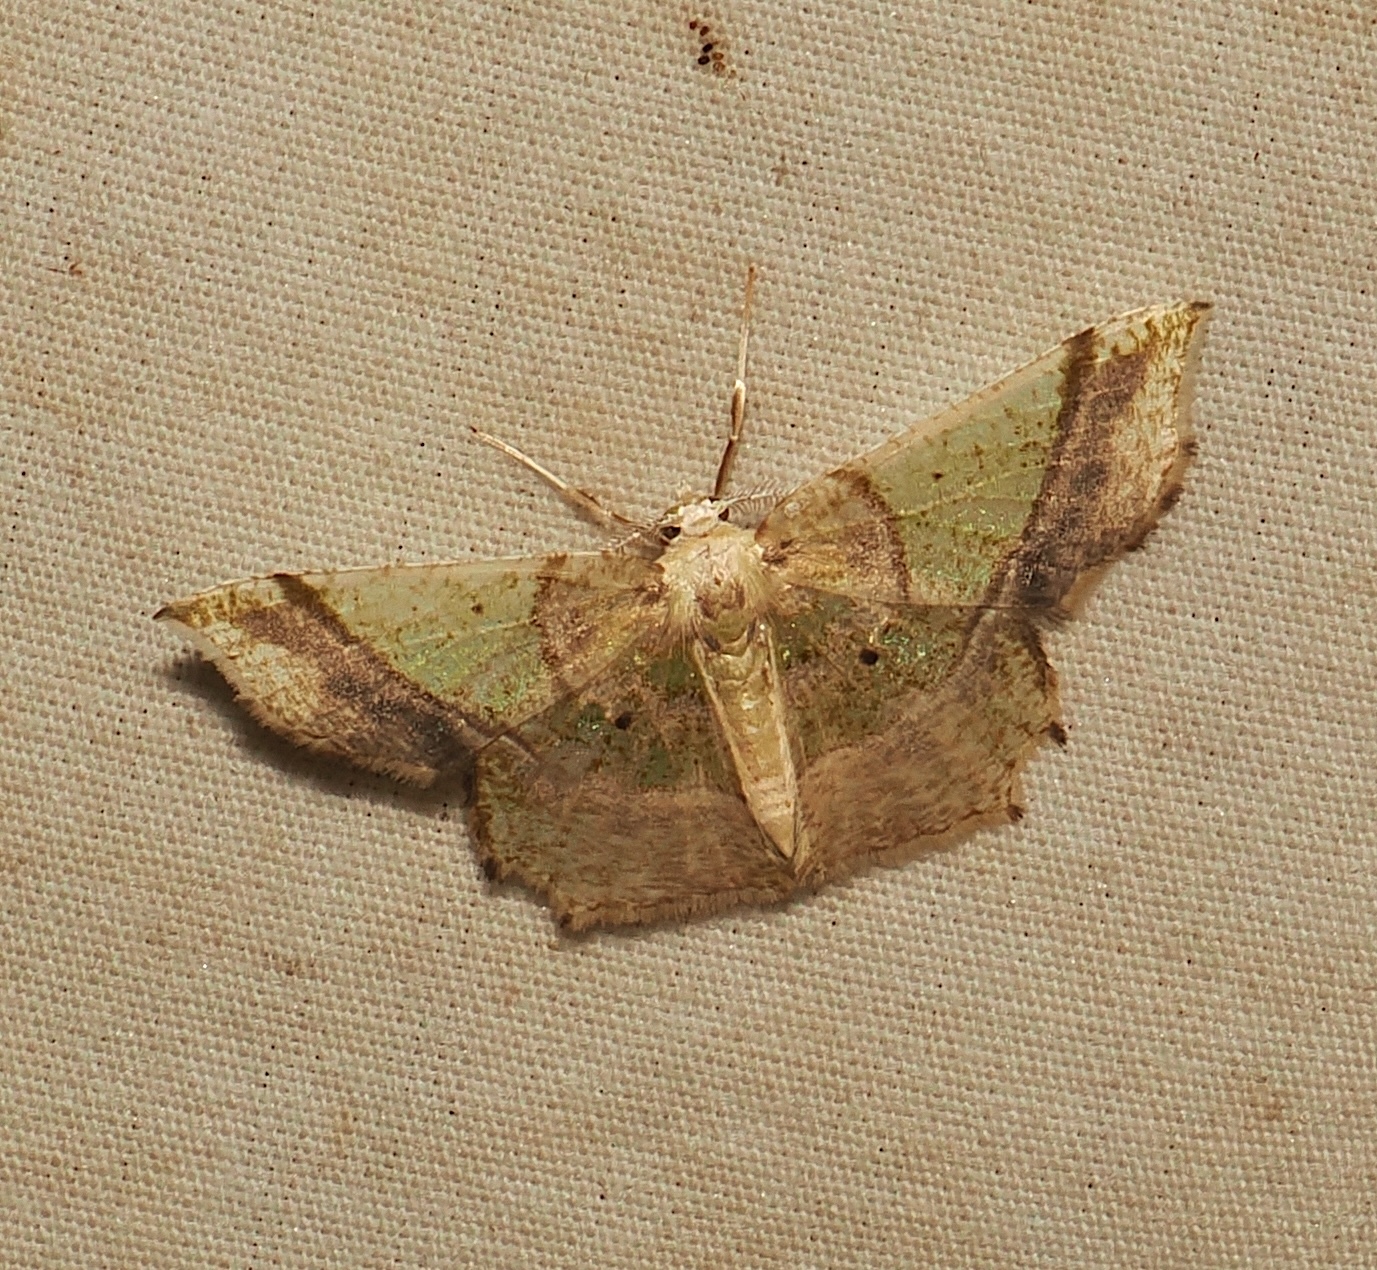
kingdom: Animalia
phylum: Arthropoda
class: Insecta
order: Lepidoptera
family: Geometridae
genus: Neagathia
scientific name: Neagathia corruptata
